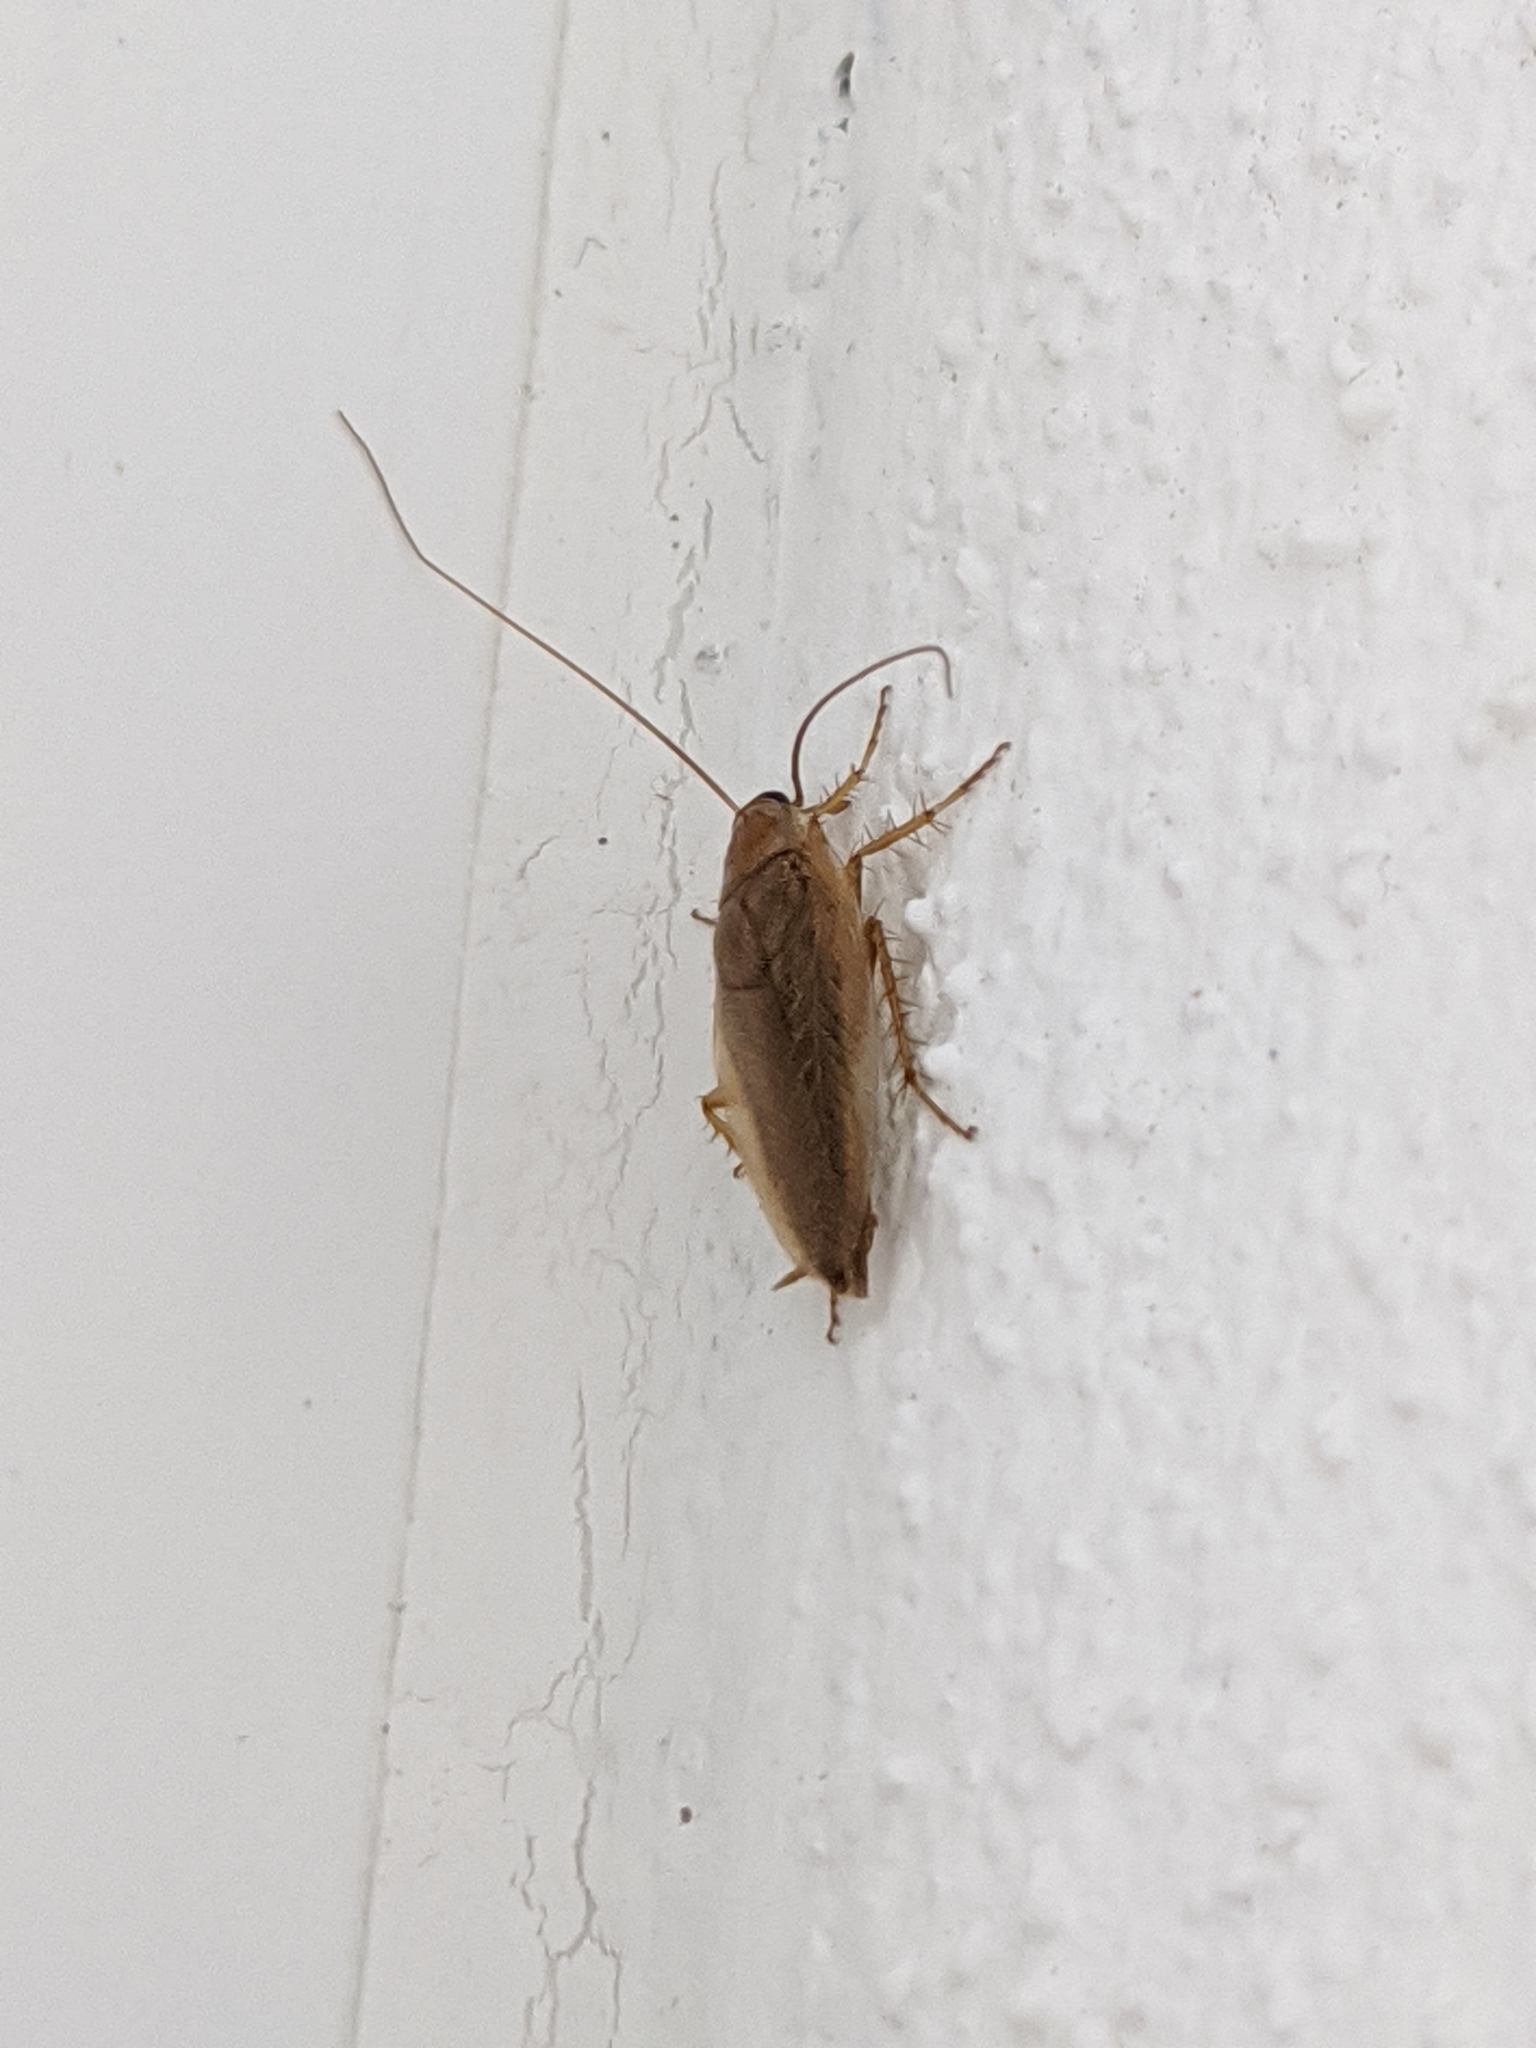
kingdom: Animalia
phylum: Arthropoda
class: Insecta
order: Blattodea
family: Ectobiidae
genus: Ectobius
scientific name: Ectobius vittiventris
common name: Garden cockroach
